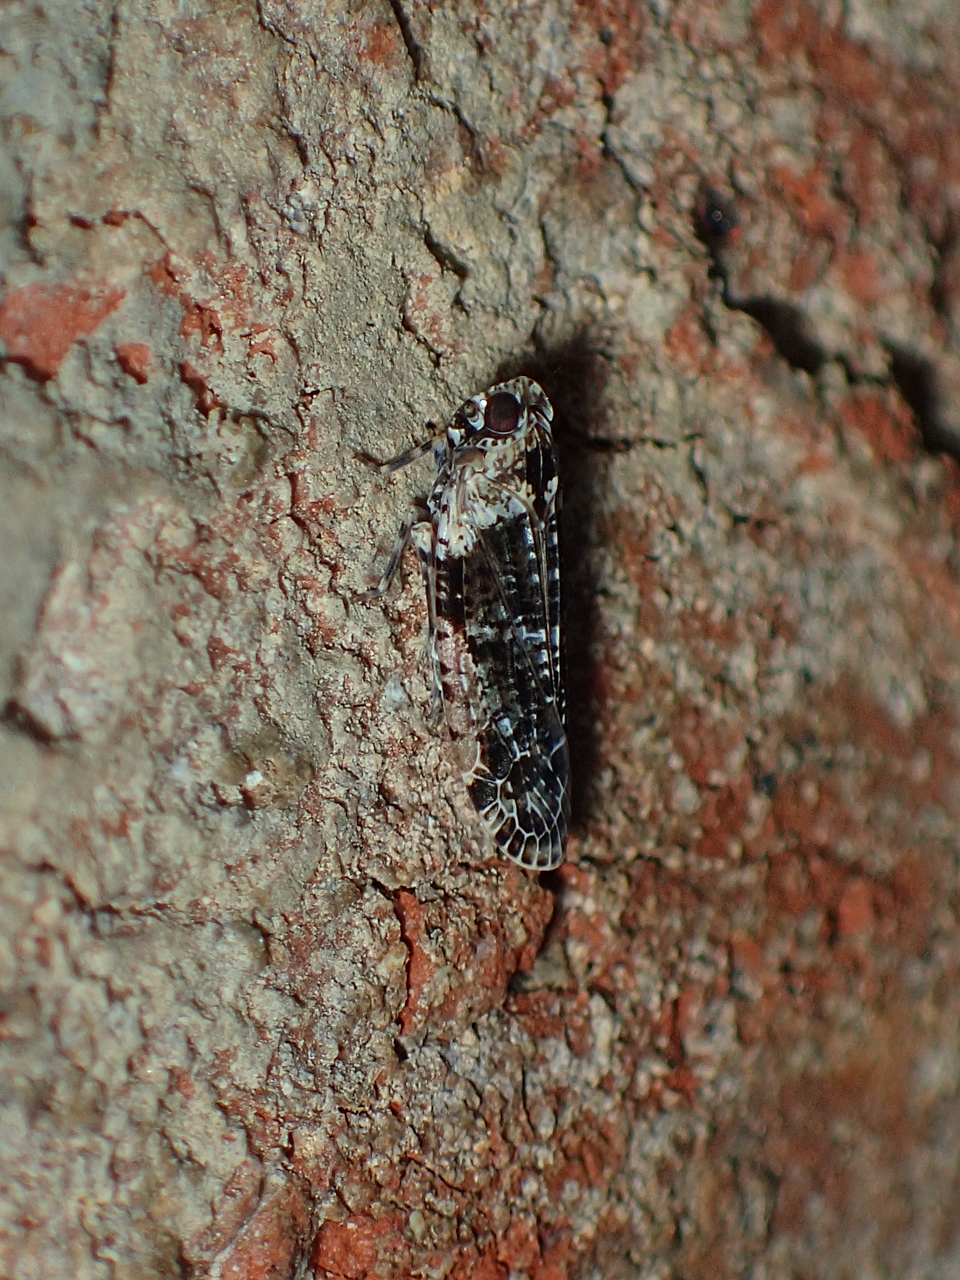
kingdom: Animalia
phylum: Arthropoda
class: Insecta
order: Hemiptera
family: Achilidae
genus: Catonia
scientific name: Catonia nava
